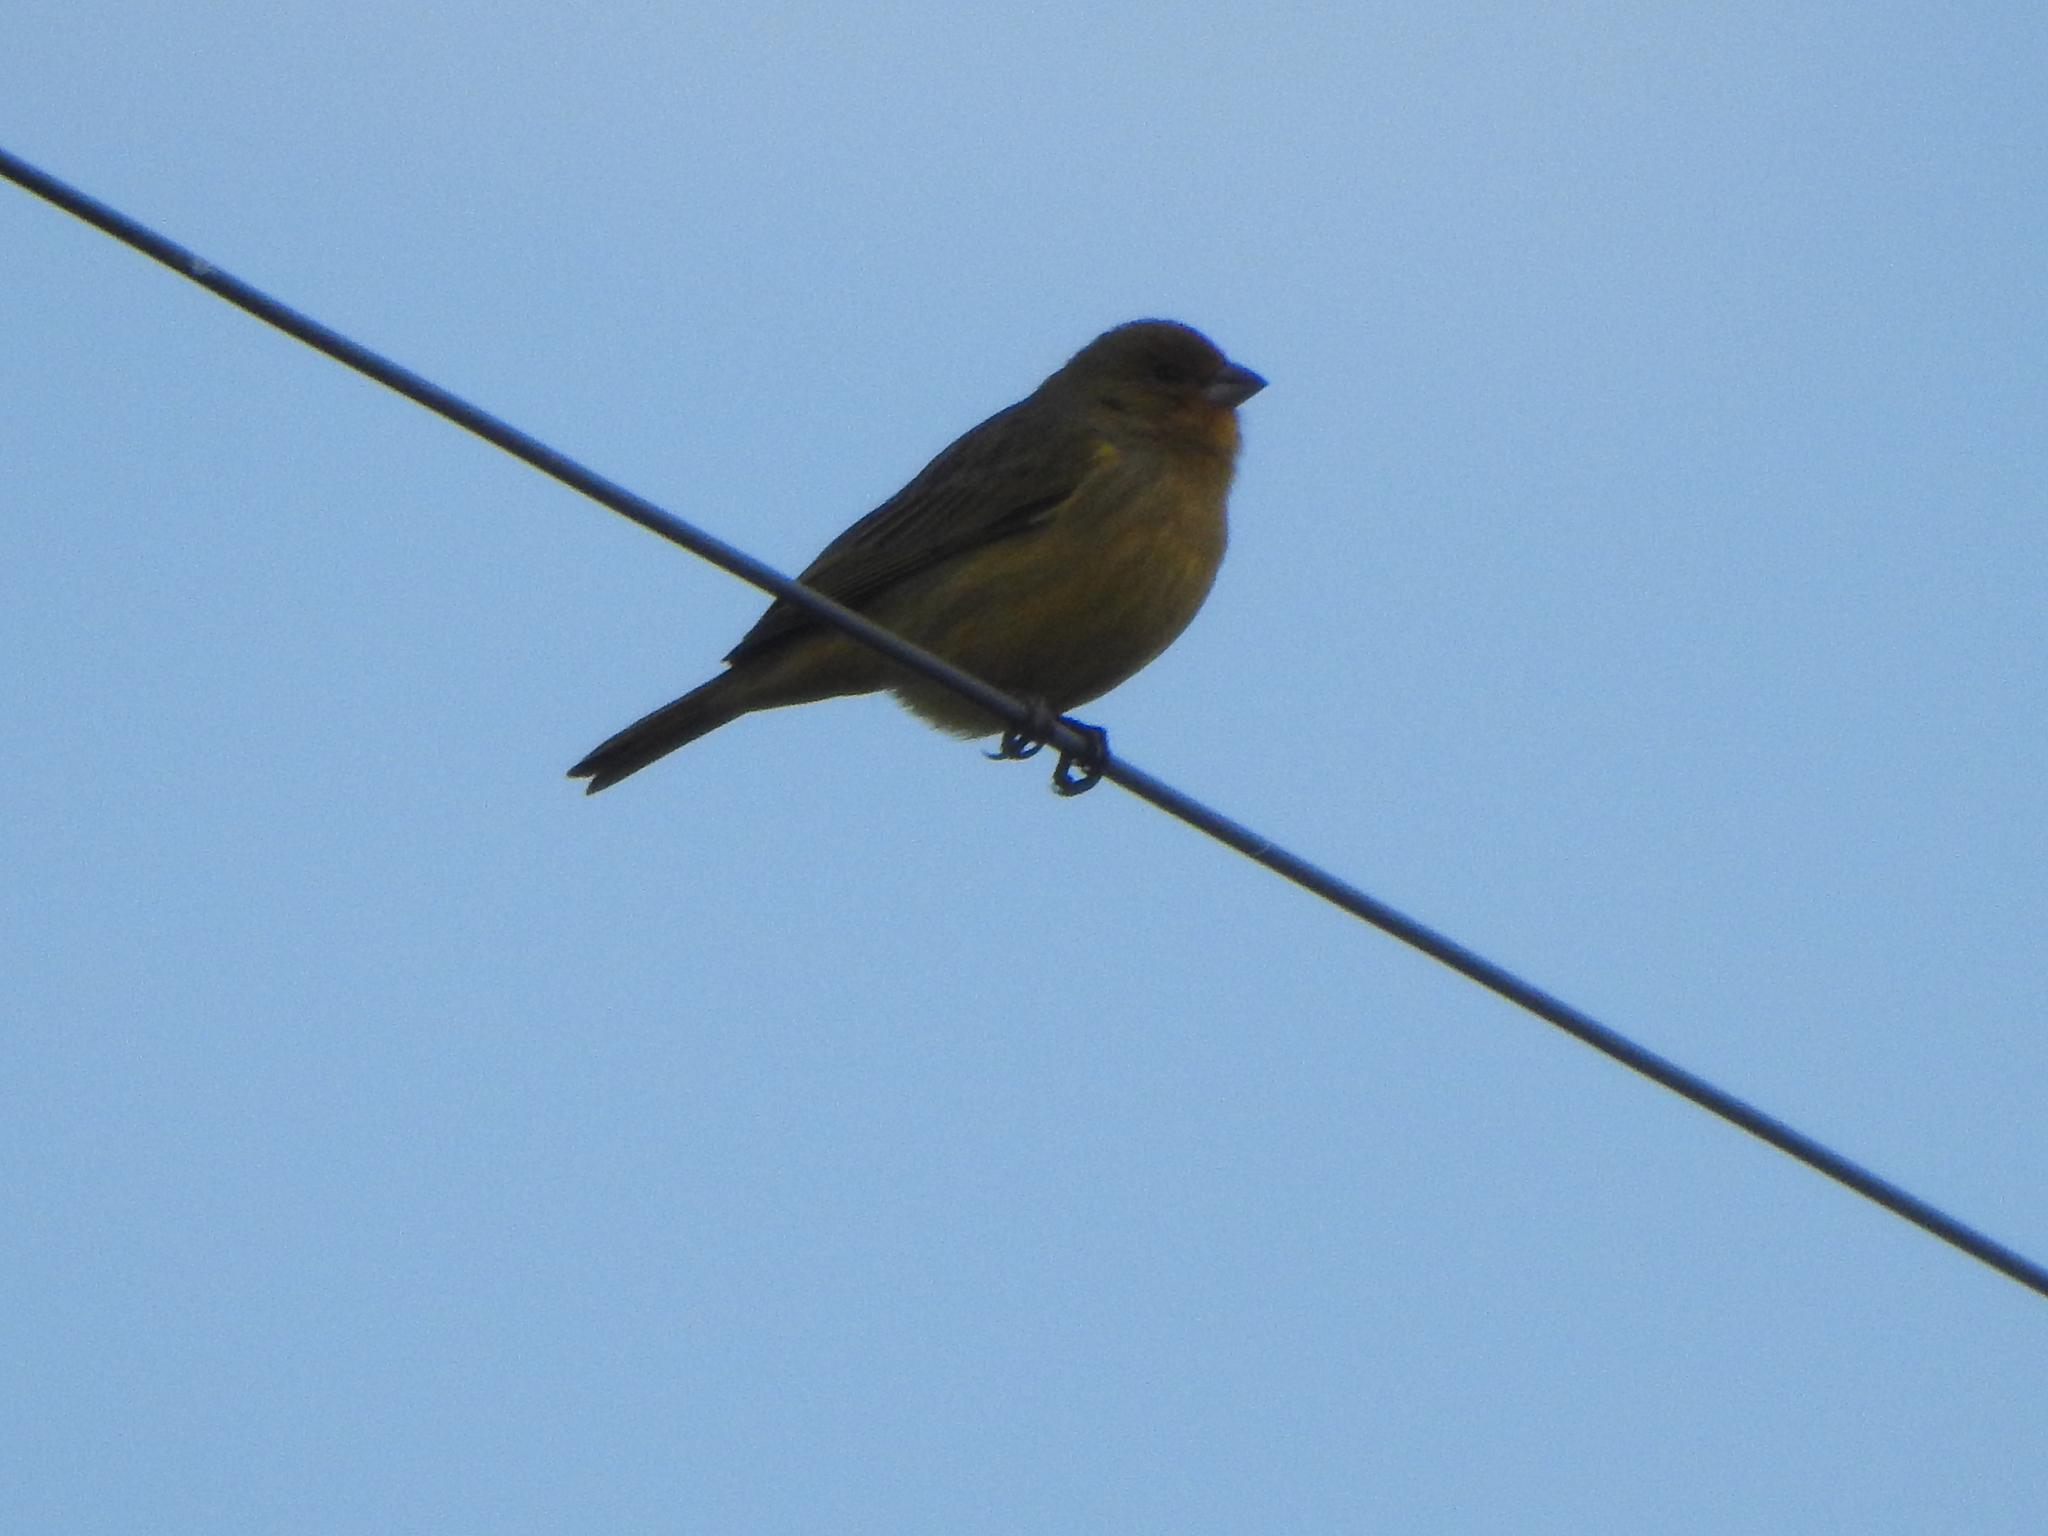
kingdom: Animalia
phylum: Chordata
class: Aves
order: Passeriformes
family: Thraupidae
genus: Sicalis
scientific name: Sicalis flaveola
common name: Saffron finch
